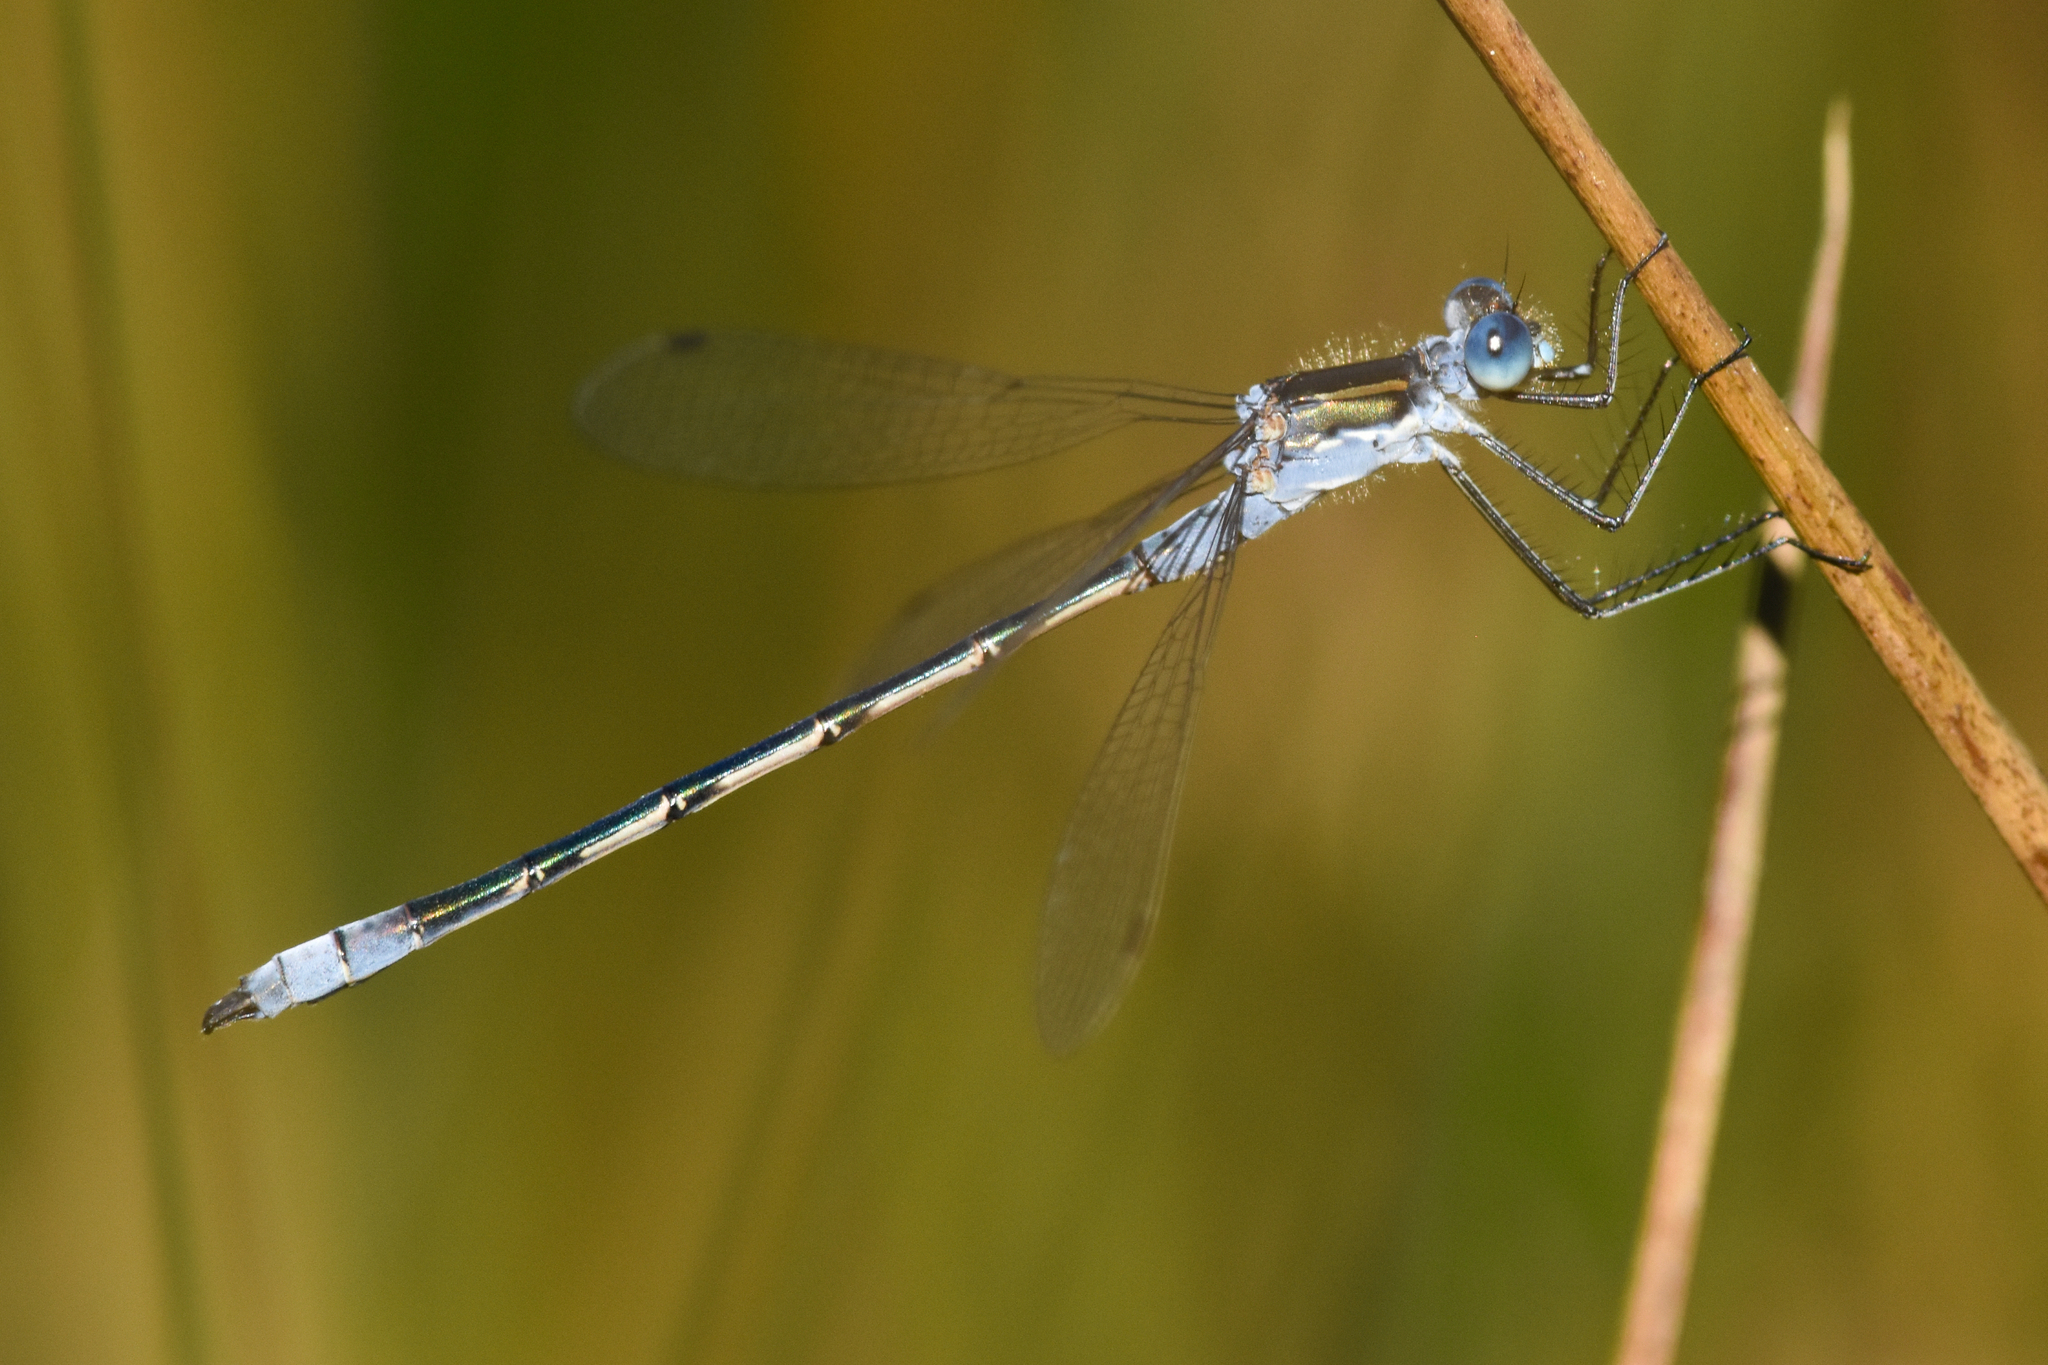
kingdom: Animalia
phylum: Arthropoda
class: Insecta
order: Odonata
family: Lestidae
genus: Lestes
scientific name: Lestes disjunctus
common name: Northern spreadwing
